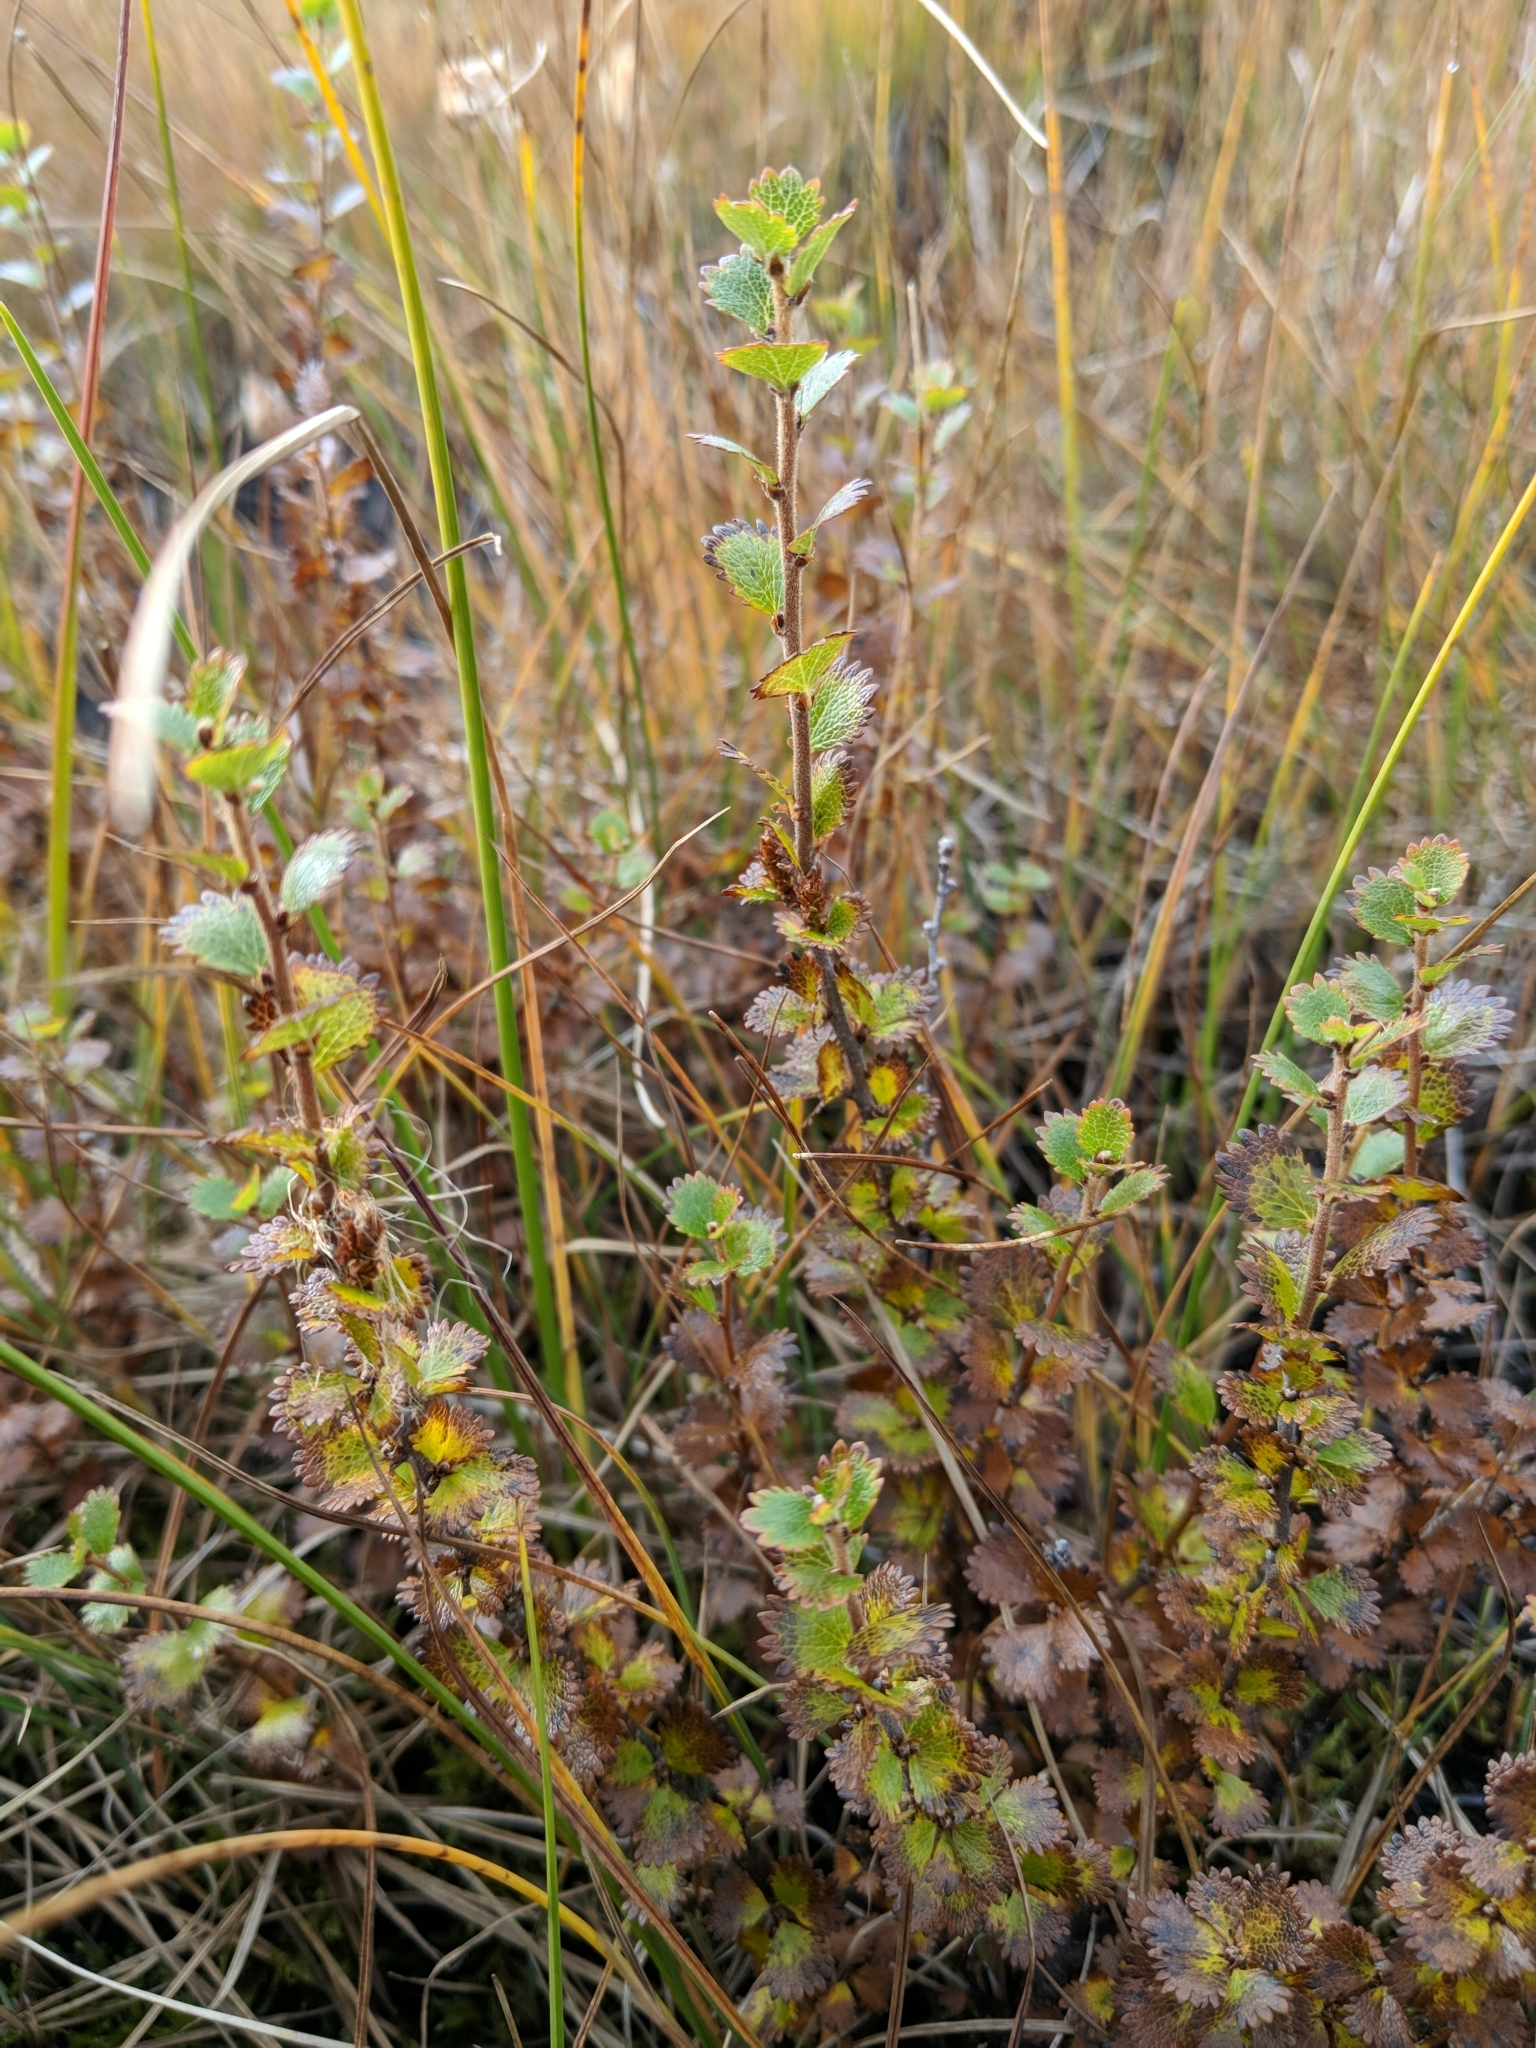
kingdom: Plantae
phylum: Tracheophyta
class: Magnoliopsida
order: Fagales
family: Betulaceae
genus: Betula
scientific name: Betula michauxii
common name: Newfoundland dwarf birch
